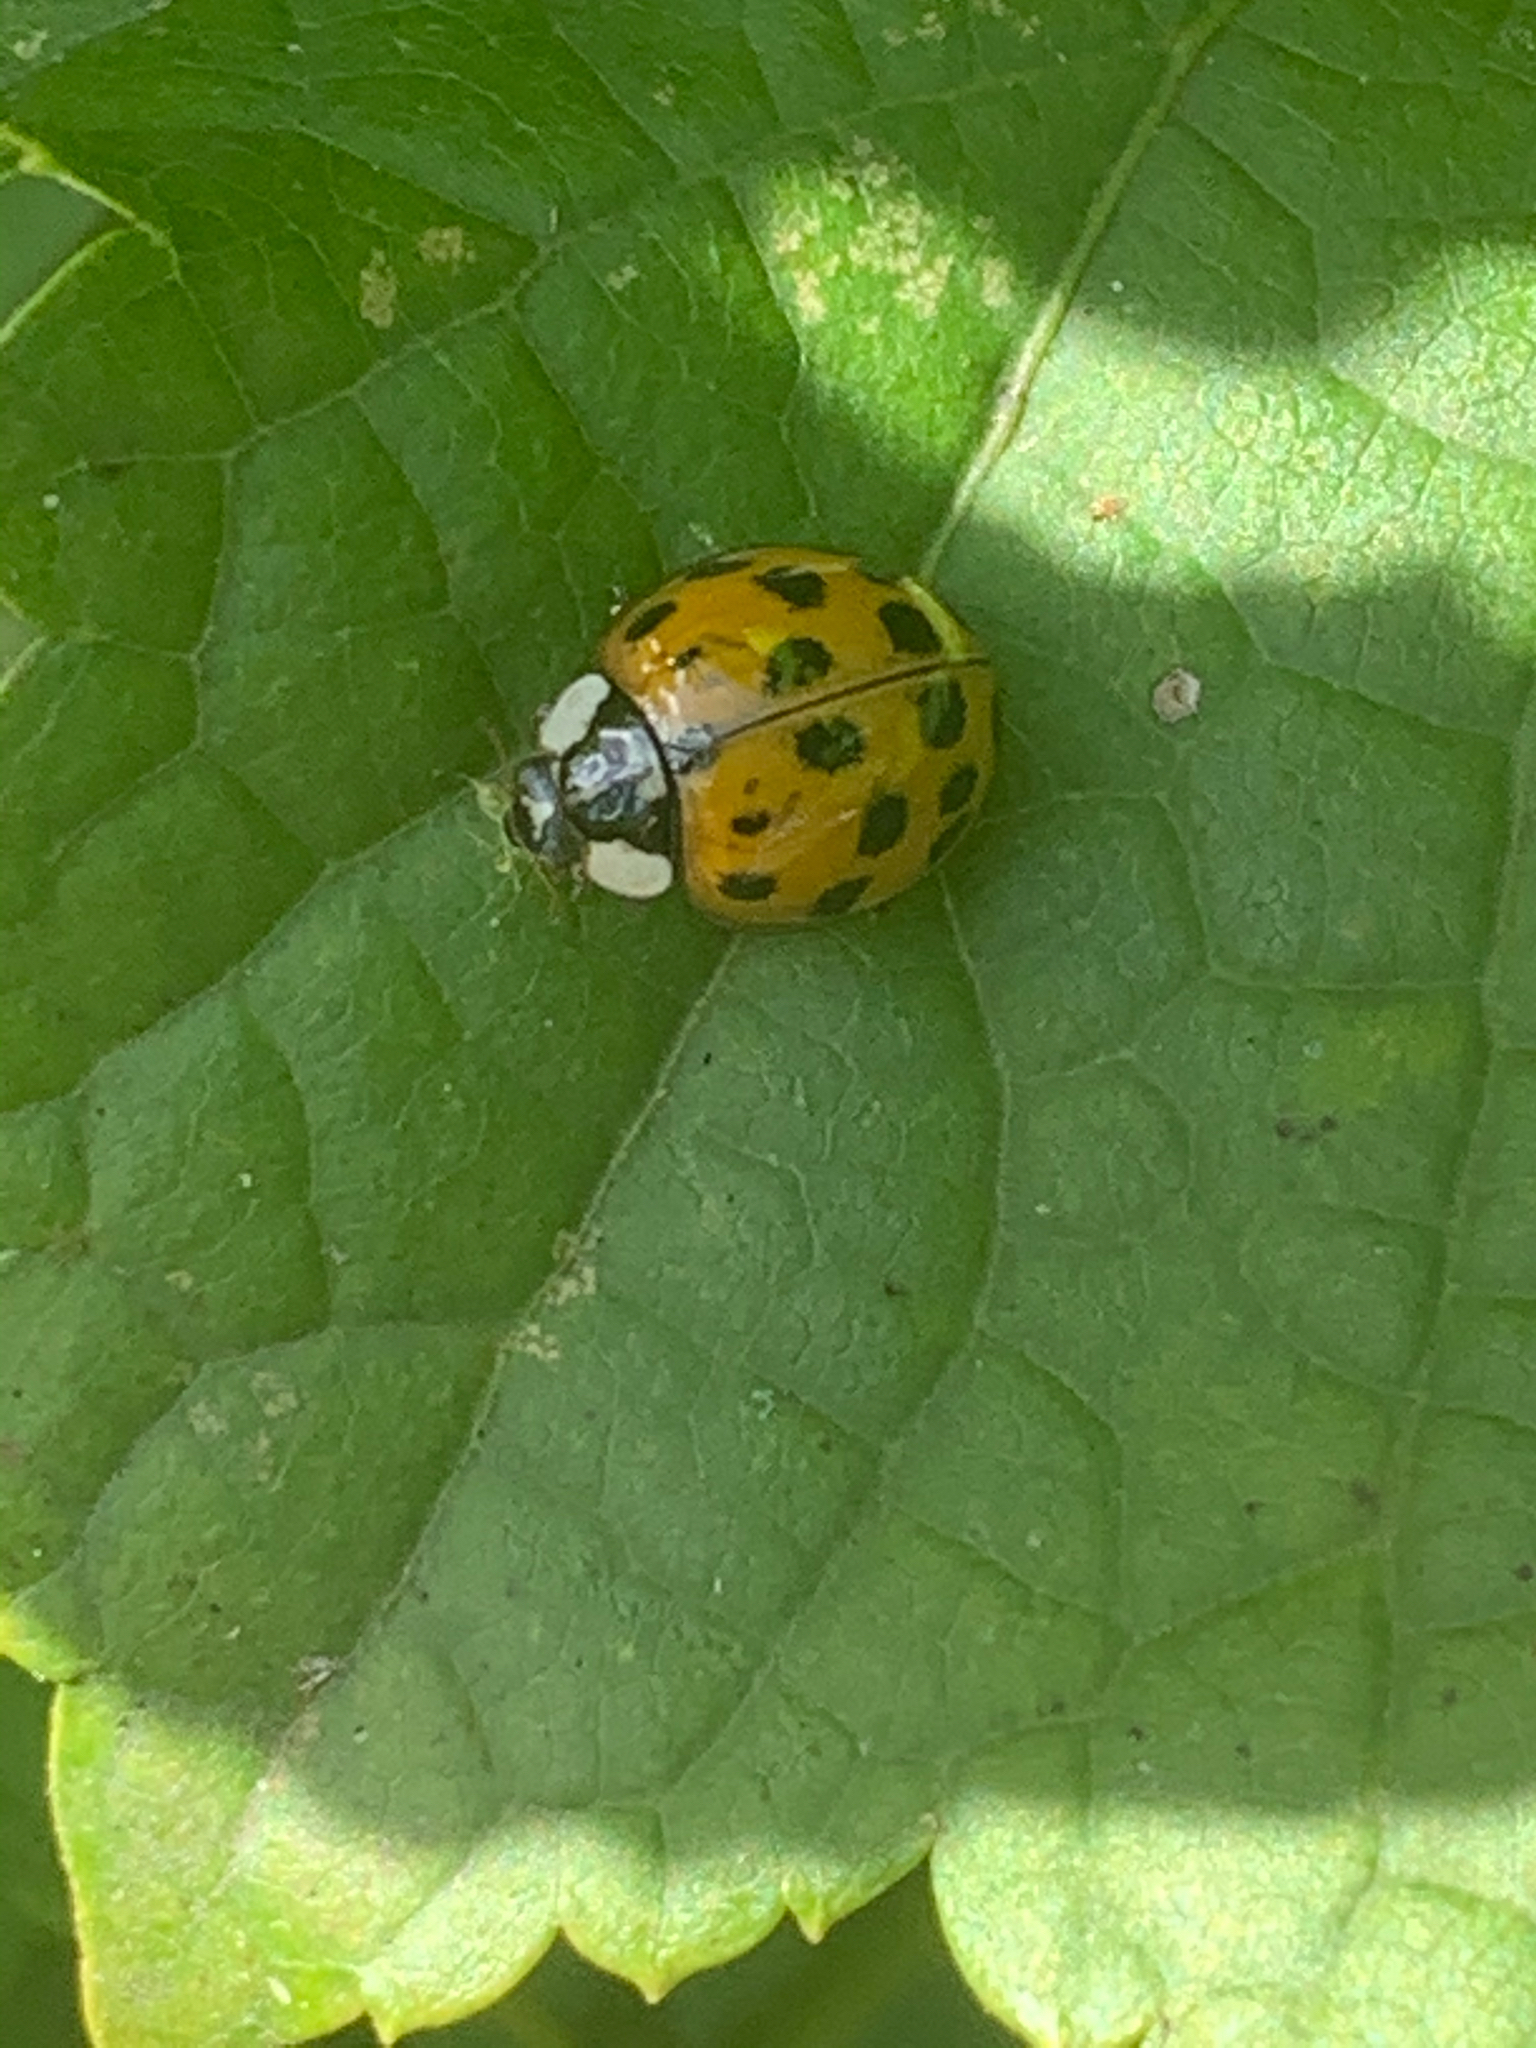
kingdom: Animalia
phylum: Arthropoda
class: Insecta
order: Coleoptera
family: Coccinellidae
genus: Harmonia
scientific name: Harmonia axyridis
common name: Harlequin ladybird
